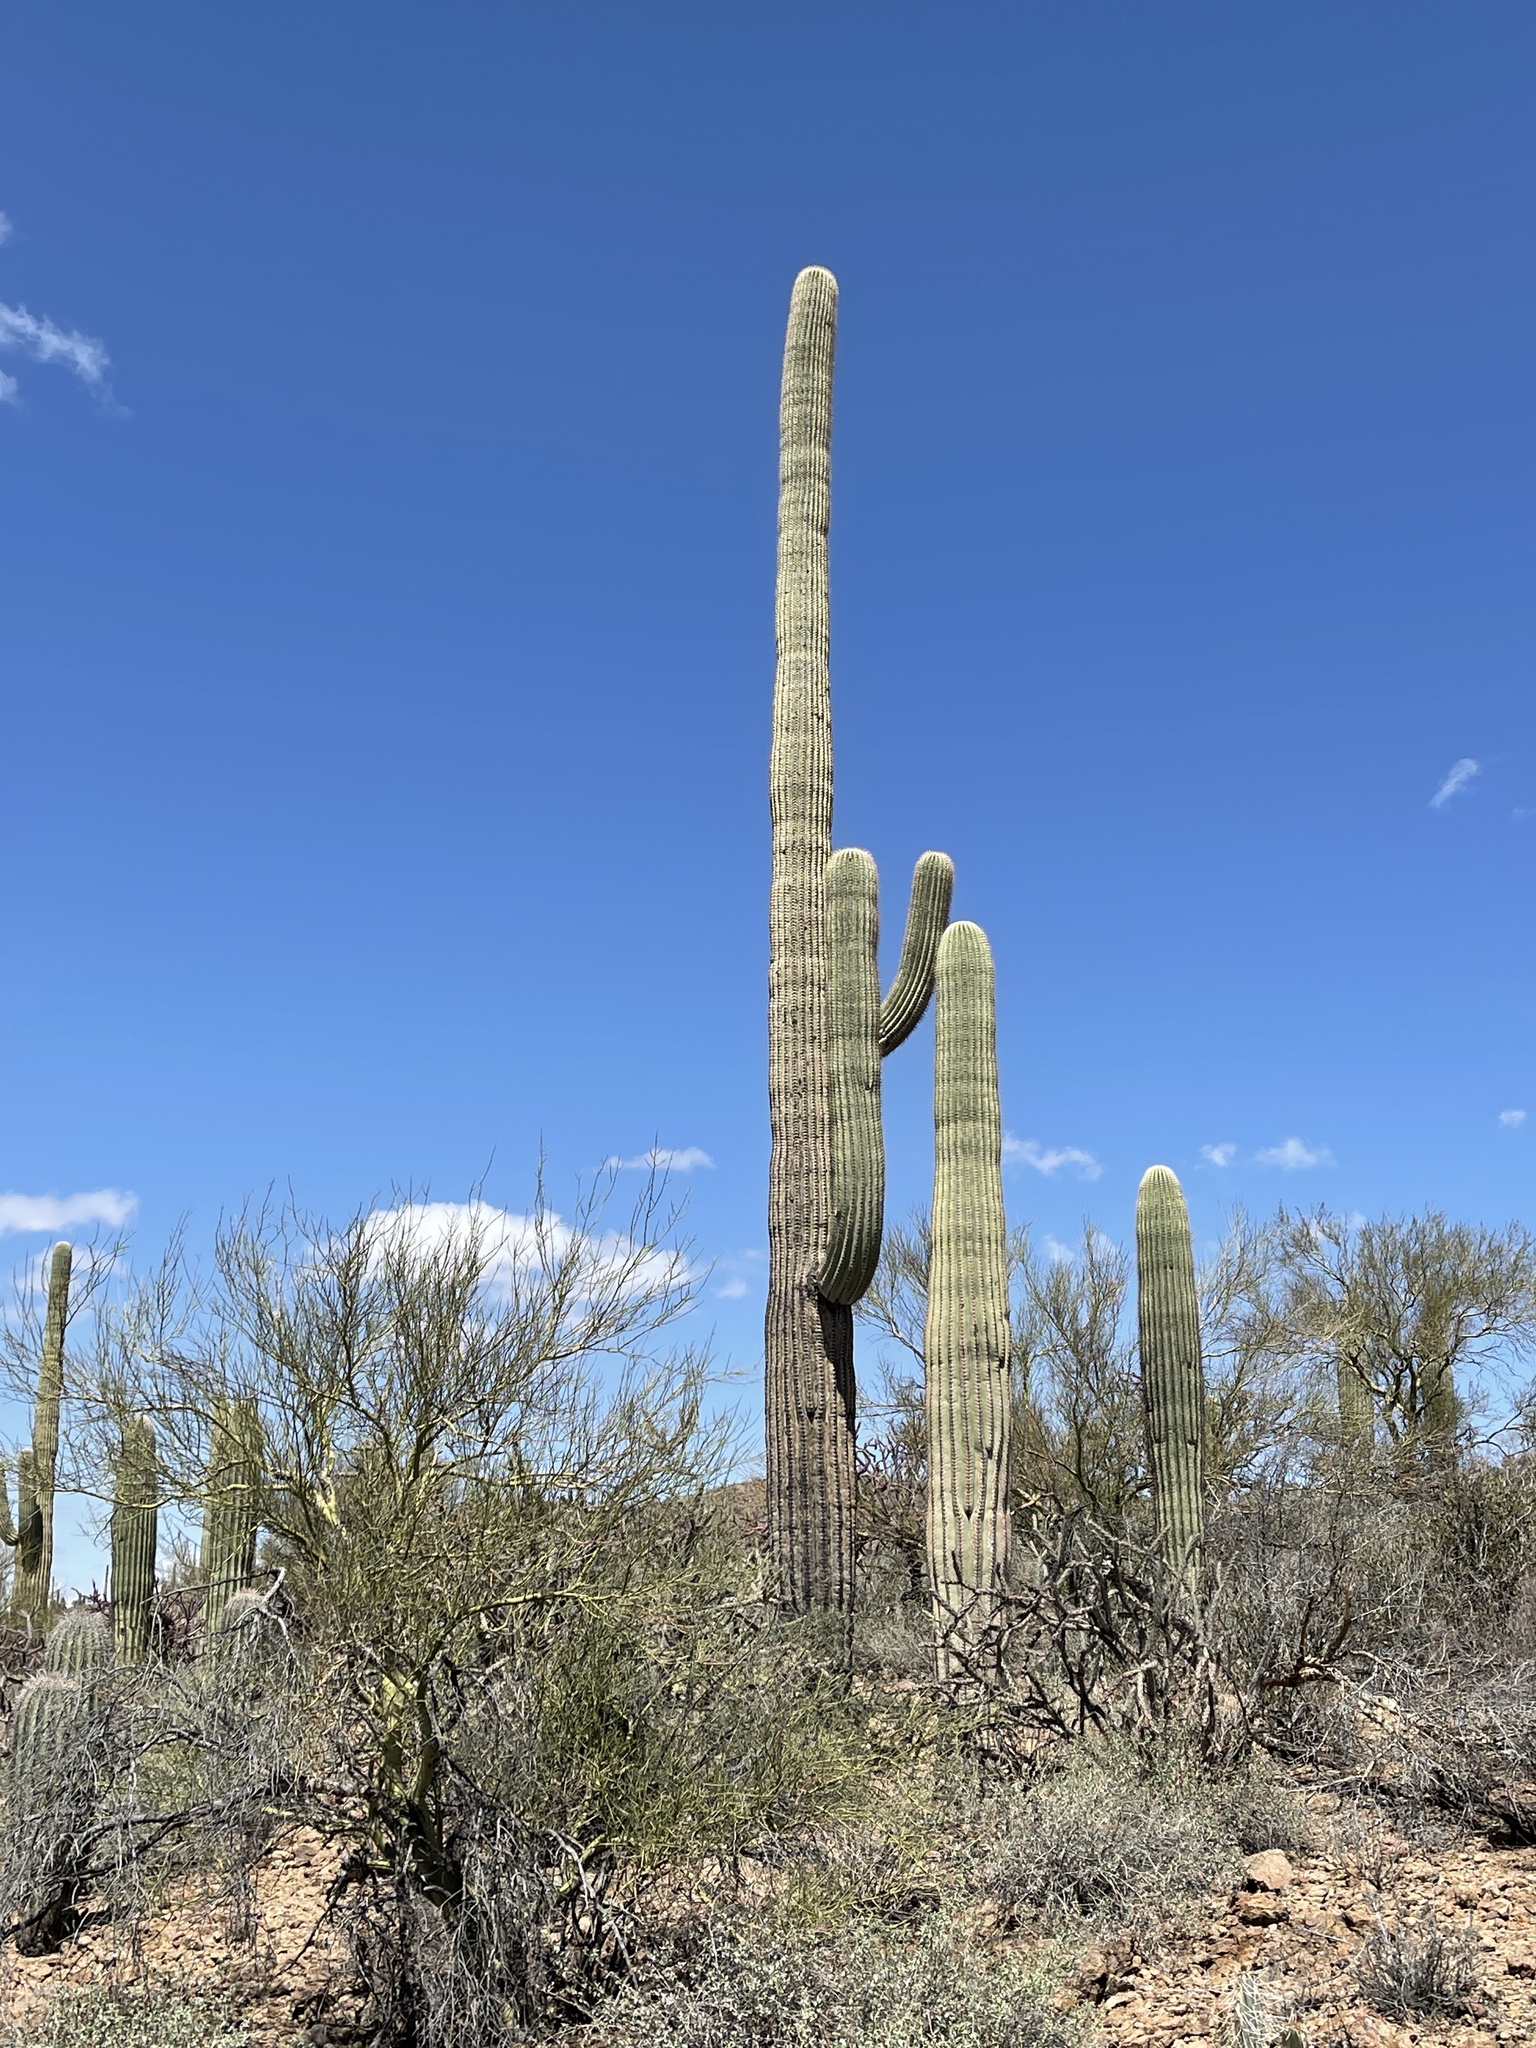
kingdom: Plantae
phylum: Tracheophyta
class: Magnoliopsida
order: Caryophyllales
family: Cactaceae
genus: Carnegiea
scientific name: Carnegiea gigantea
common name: Saguaro
